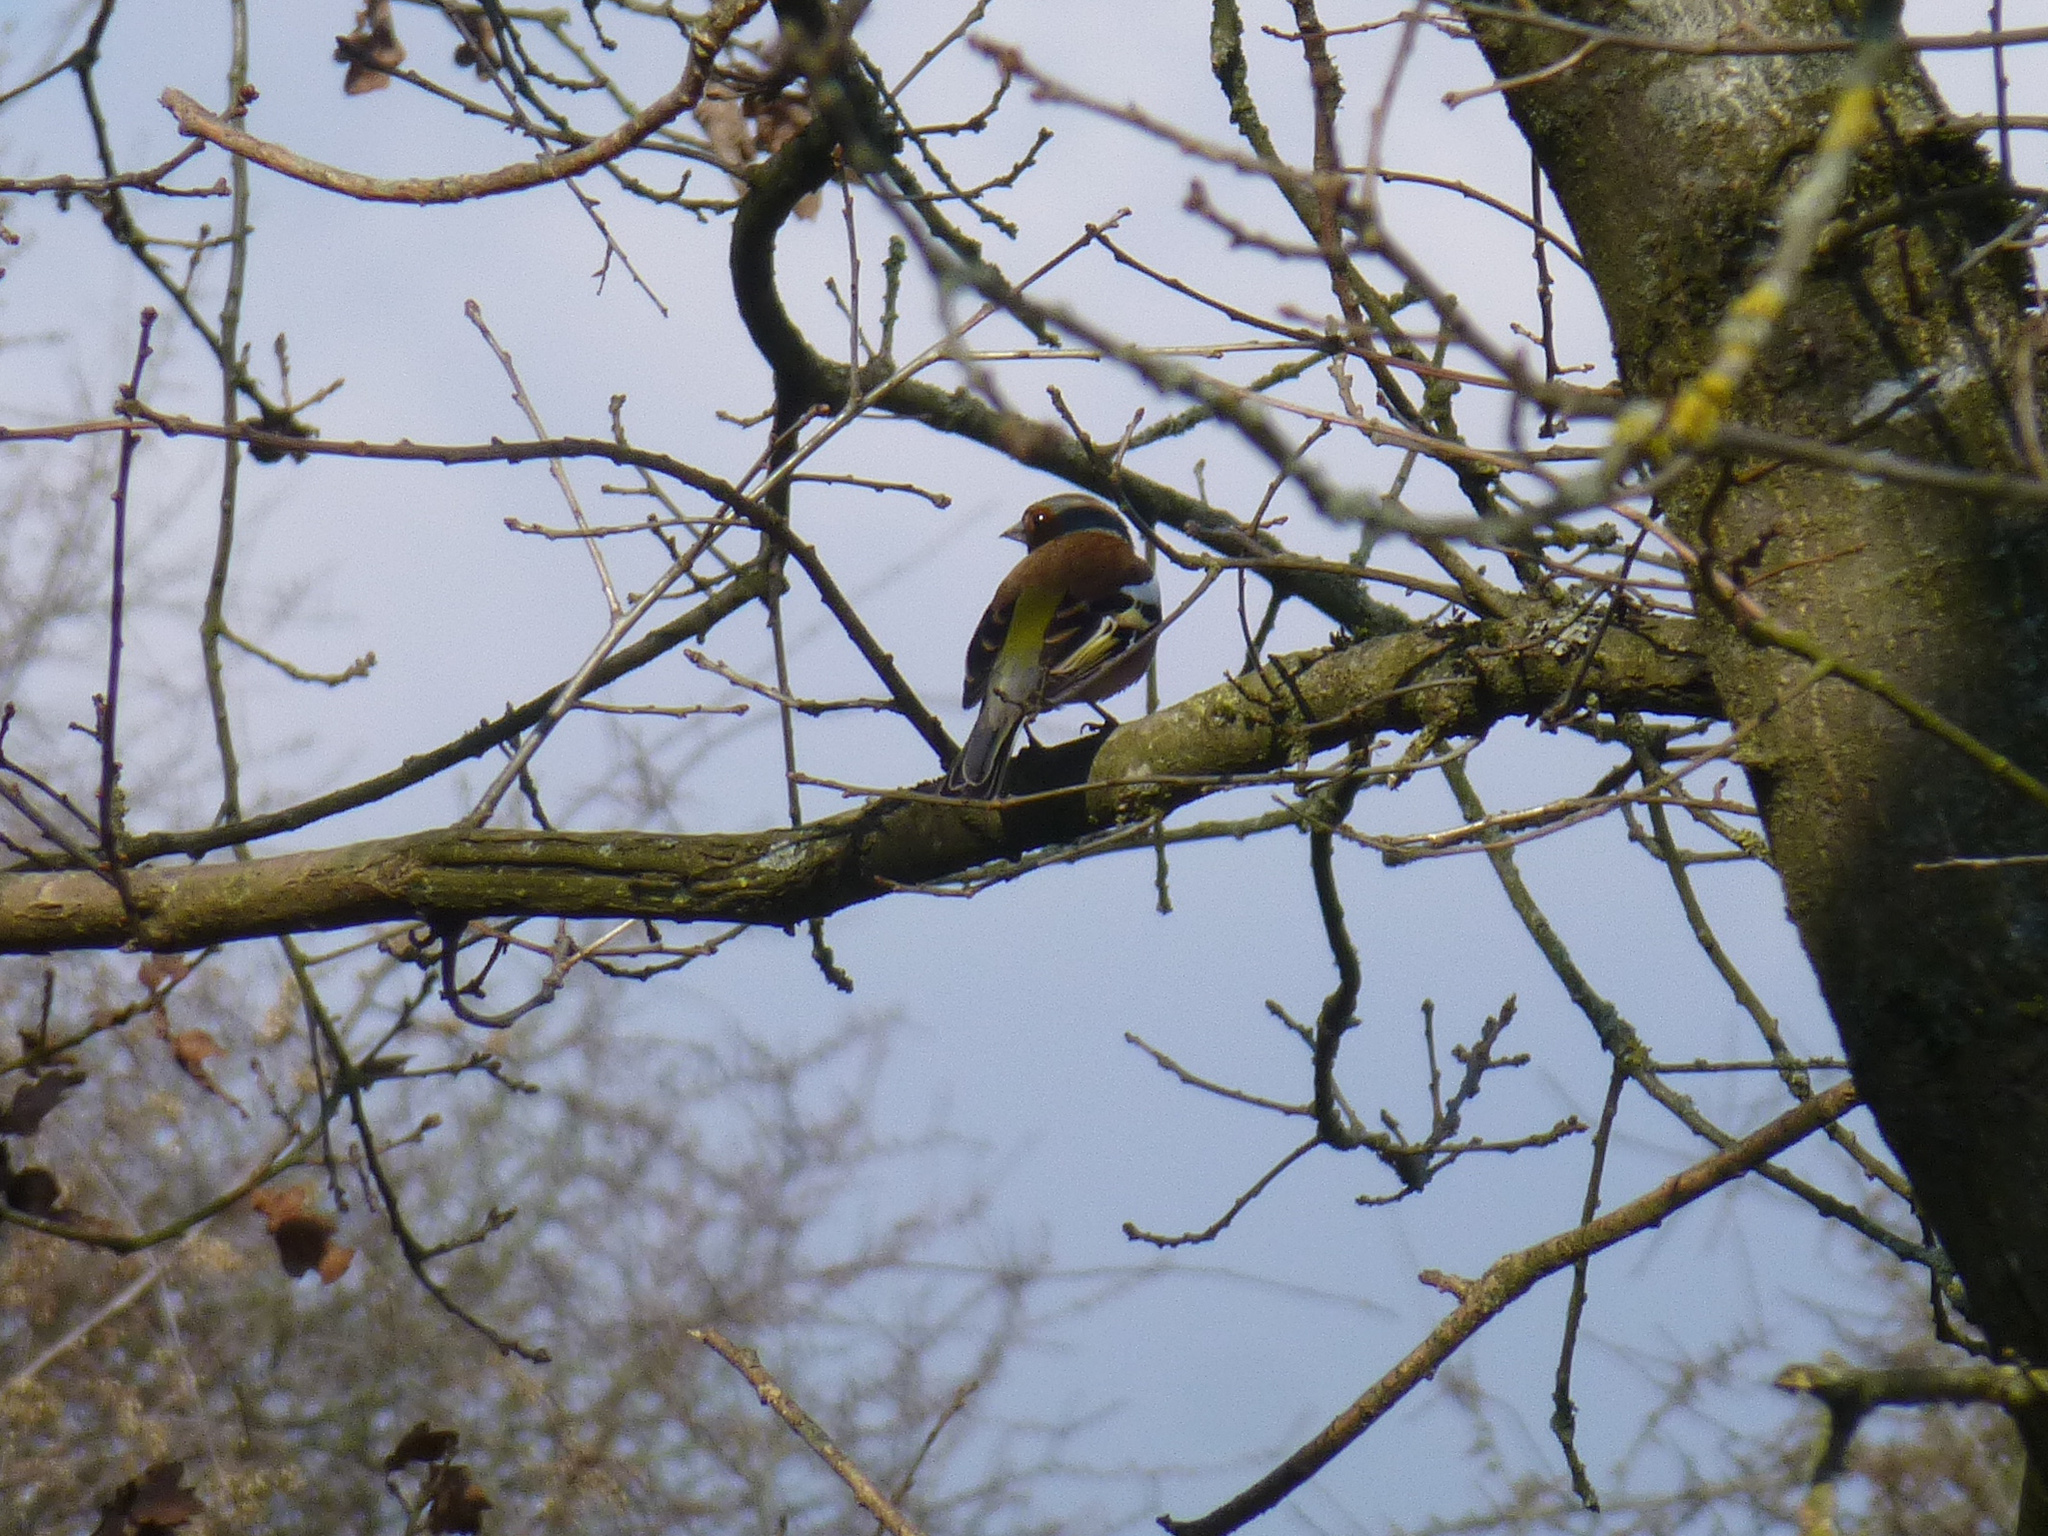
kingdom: Animalia
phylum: Chordata
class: Aves
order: Passeriformes
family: Fringillidae
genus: Fringilla
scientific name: Fringilla coelebs
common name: Common chaffinch
